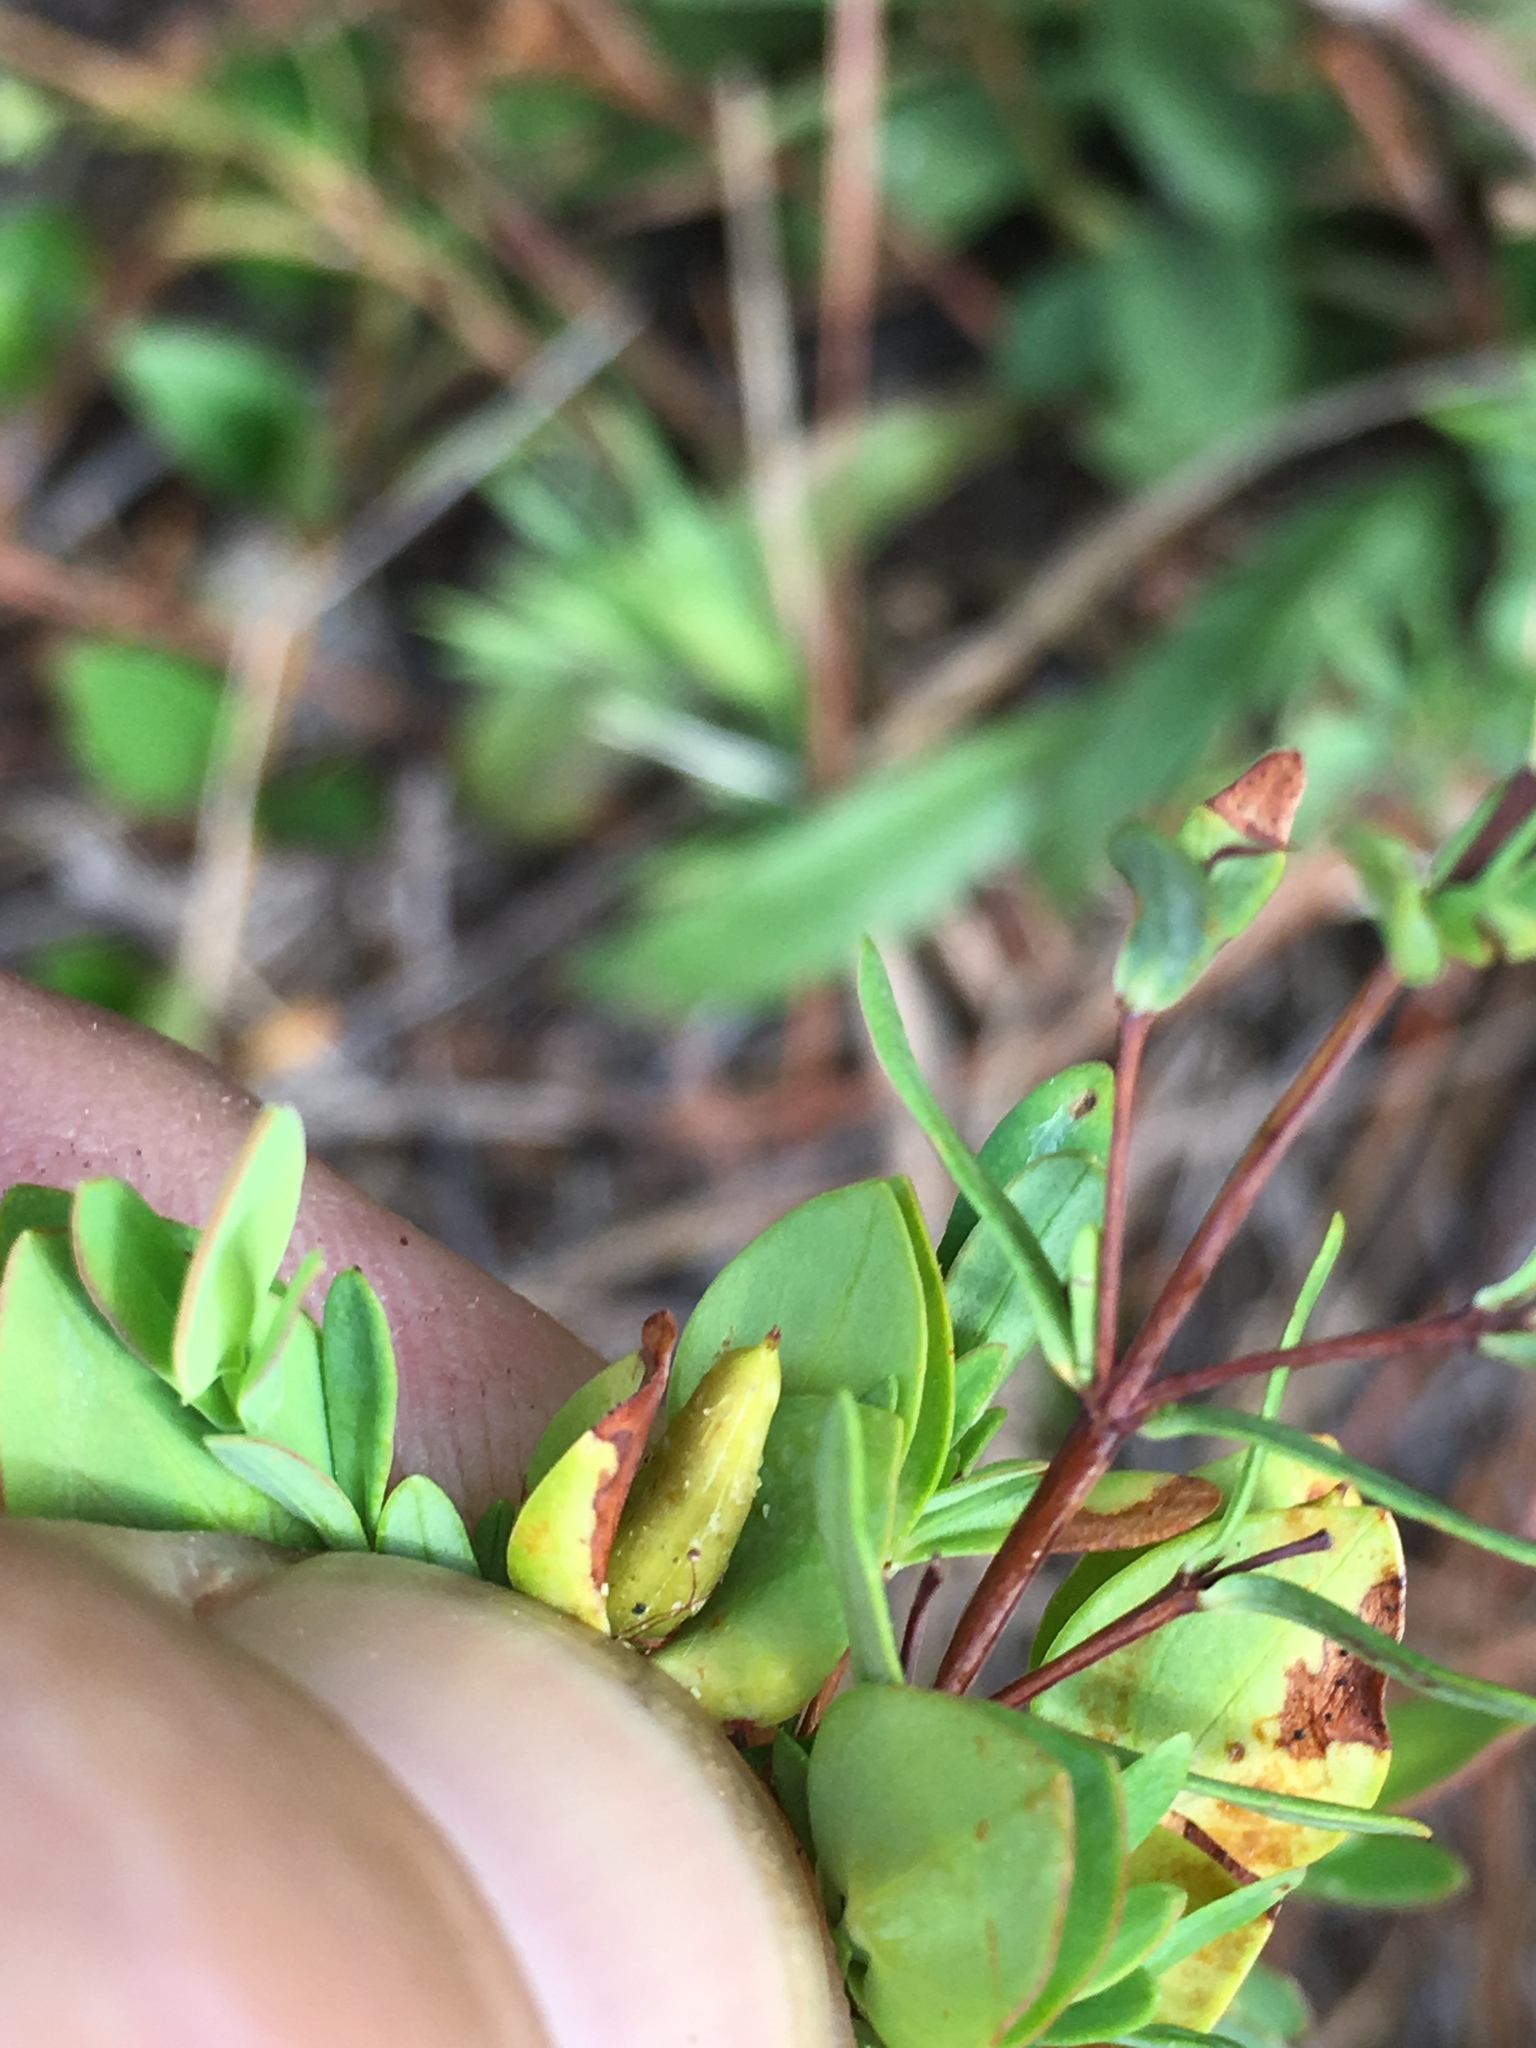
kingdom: Plantae
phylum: Tracheophyta
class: Magnoliopsida
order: Malpighiales
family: Hypericaceae
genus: Hypericum
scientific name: Hypericum hypericoides
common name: St. andrew's cross
